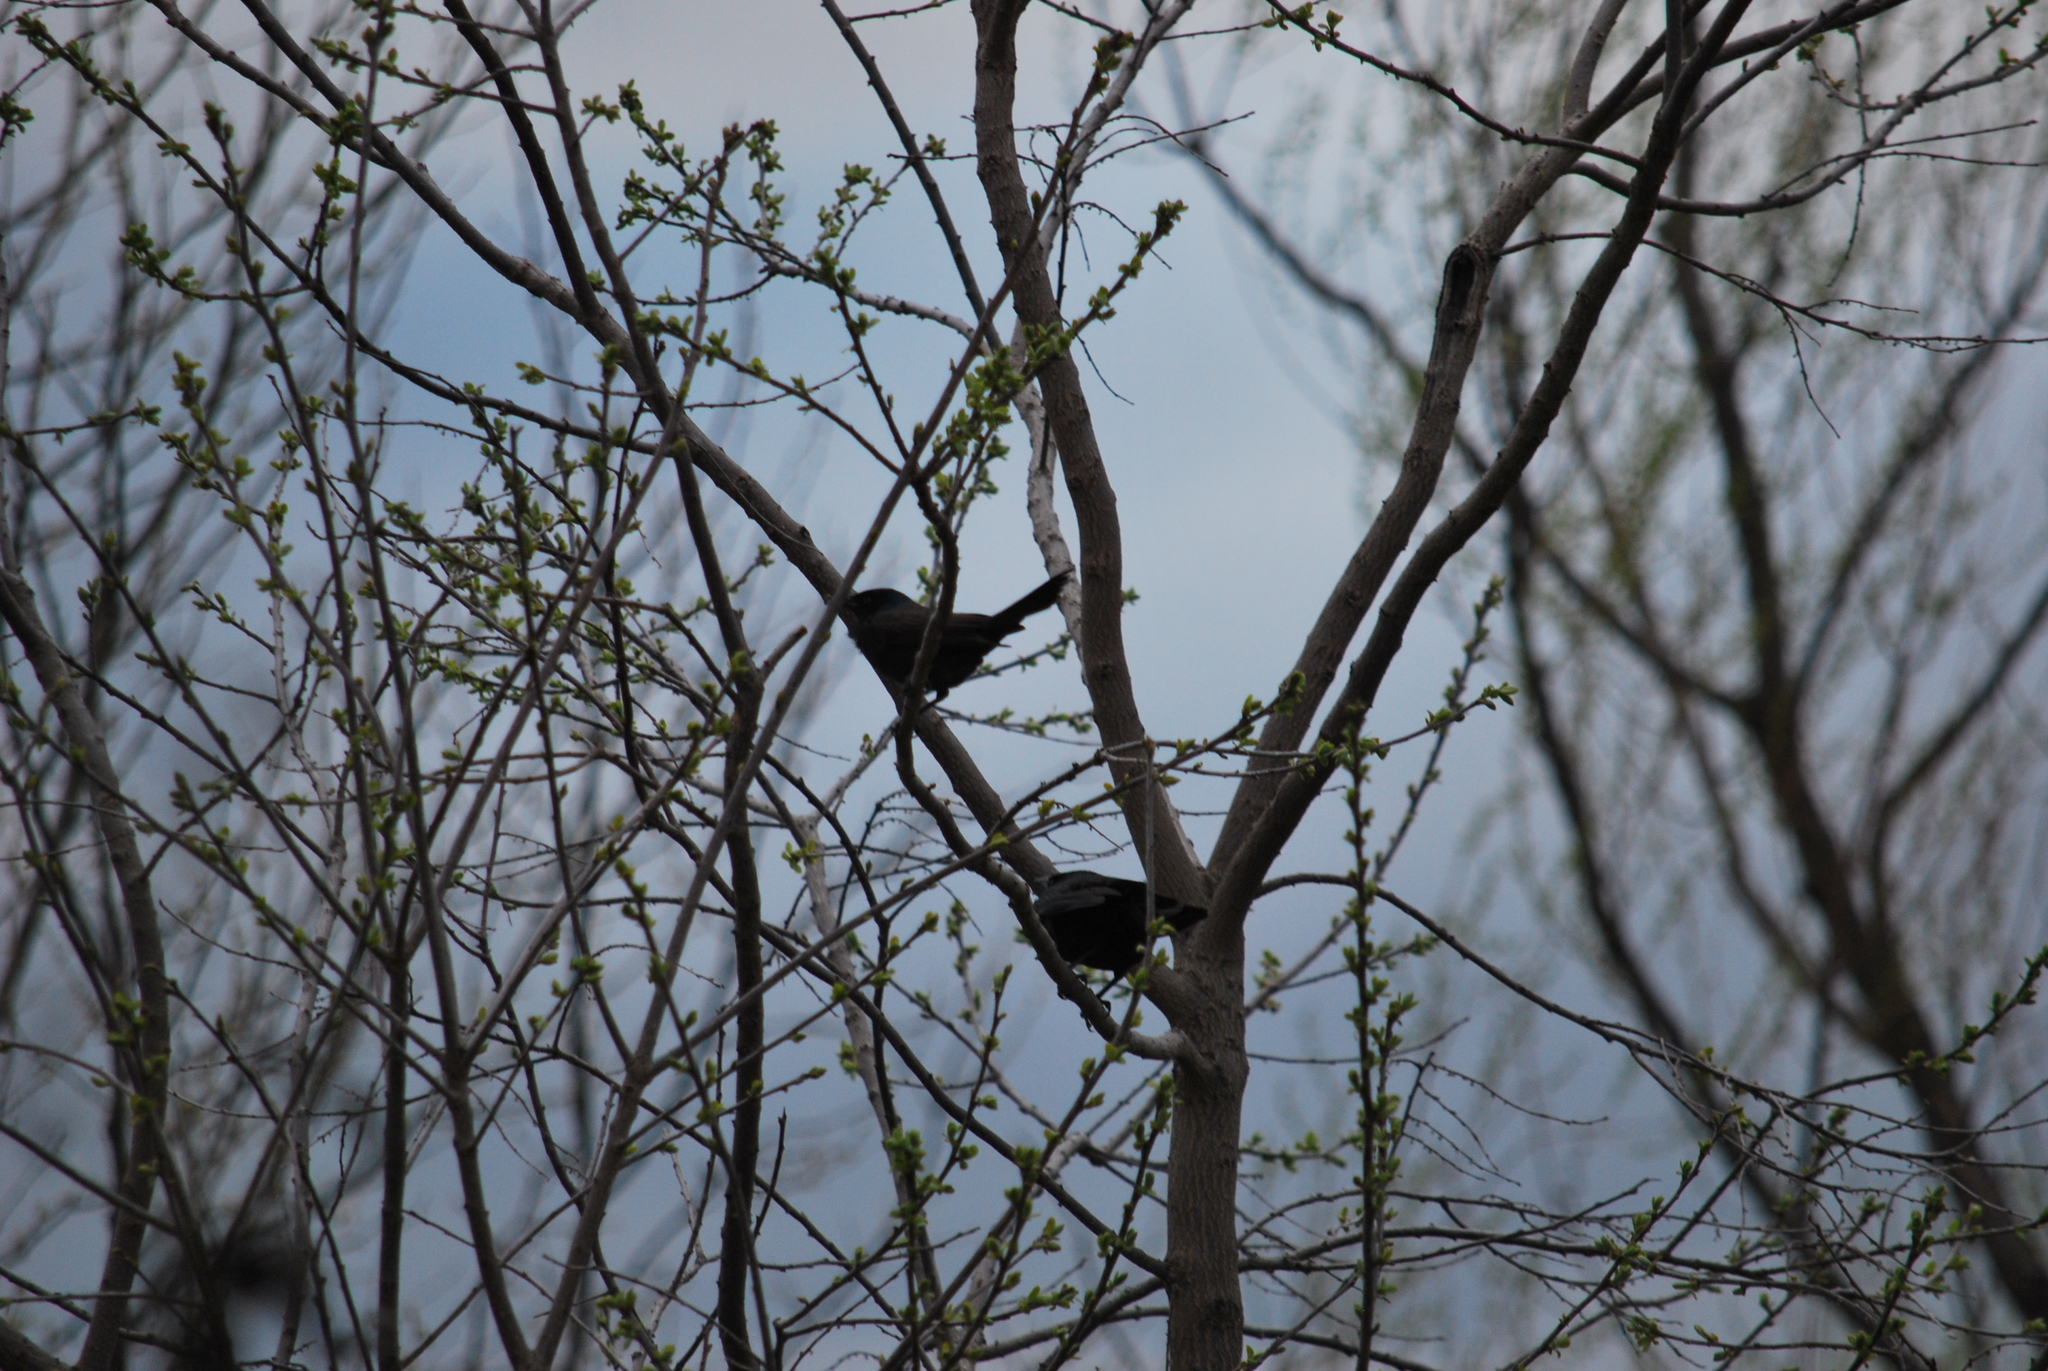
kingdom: Animalia
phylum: Chordata
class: Aves
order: Passeriformes
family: Icteridae
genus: Quiscalus
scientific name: Quiscalus quiscula
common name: Common grackle
